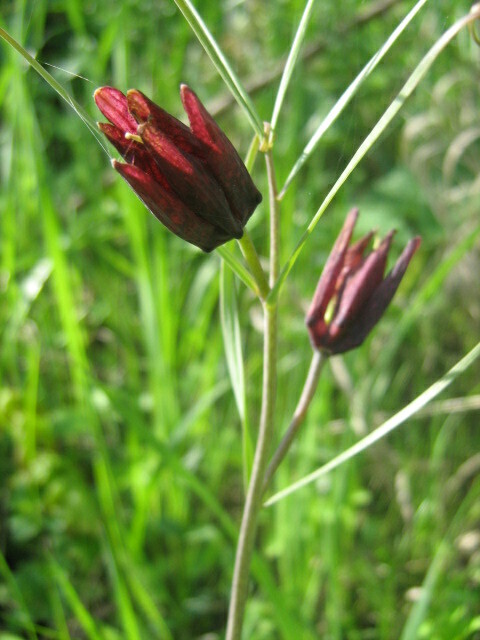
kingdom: Plantae
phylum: Tracheophyta
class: Liliopsida
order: Liliales
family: Liliaceae
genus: Fritillaria
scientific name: Fritillaria ruthenica
